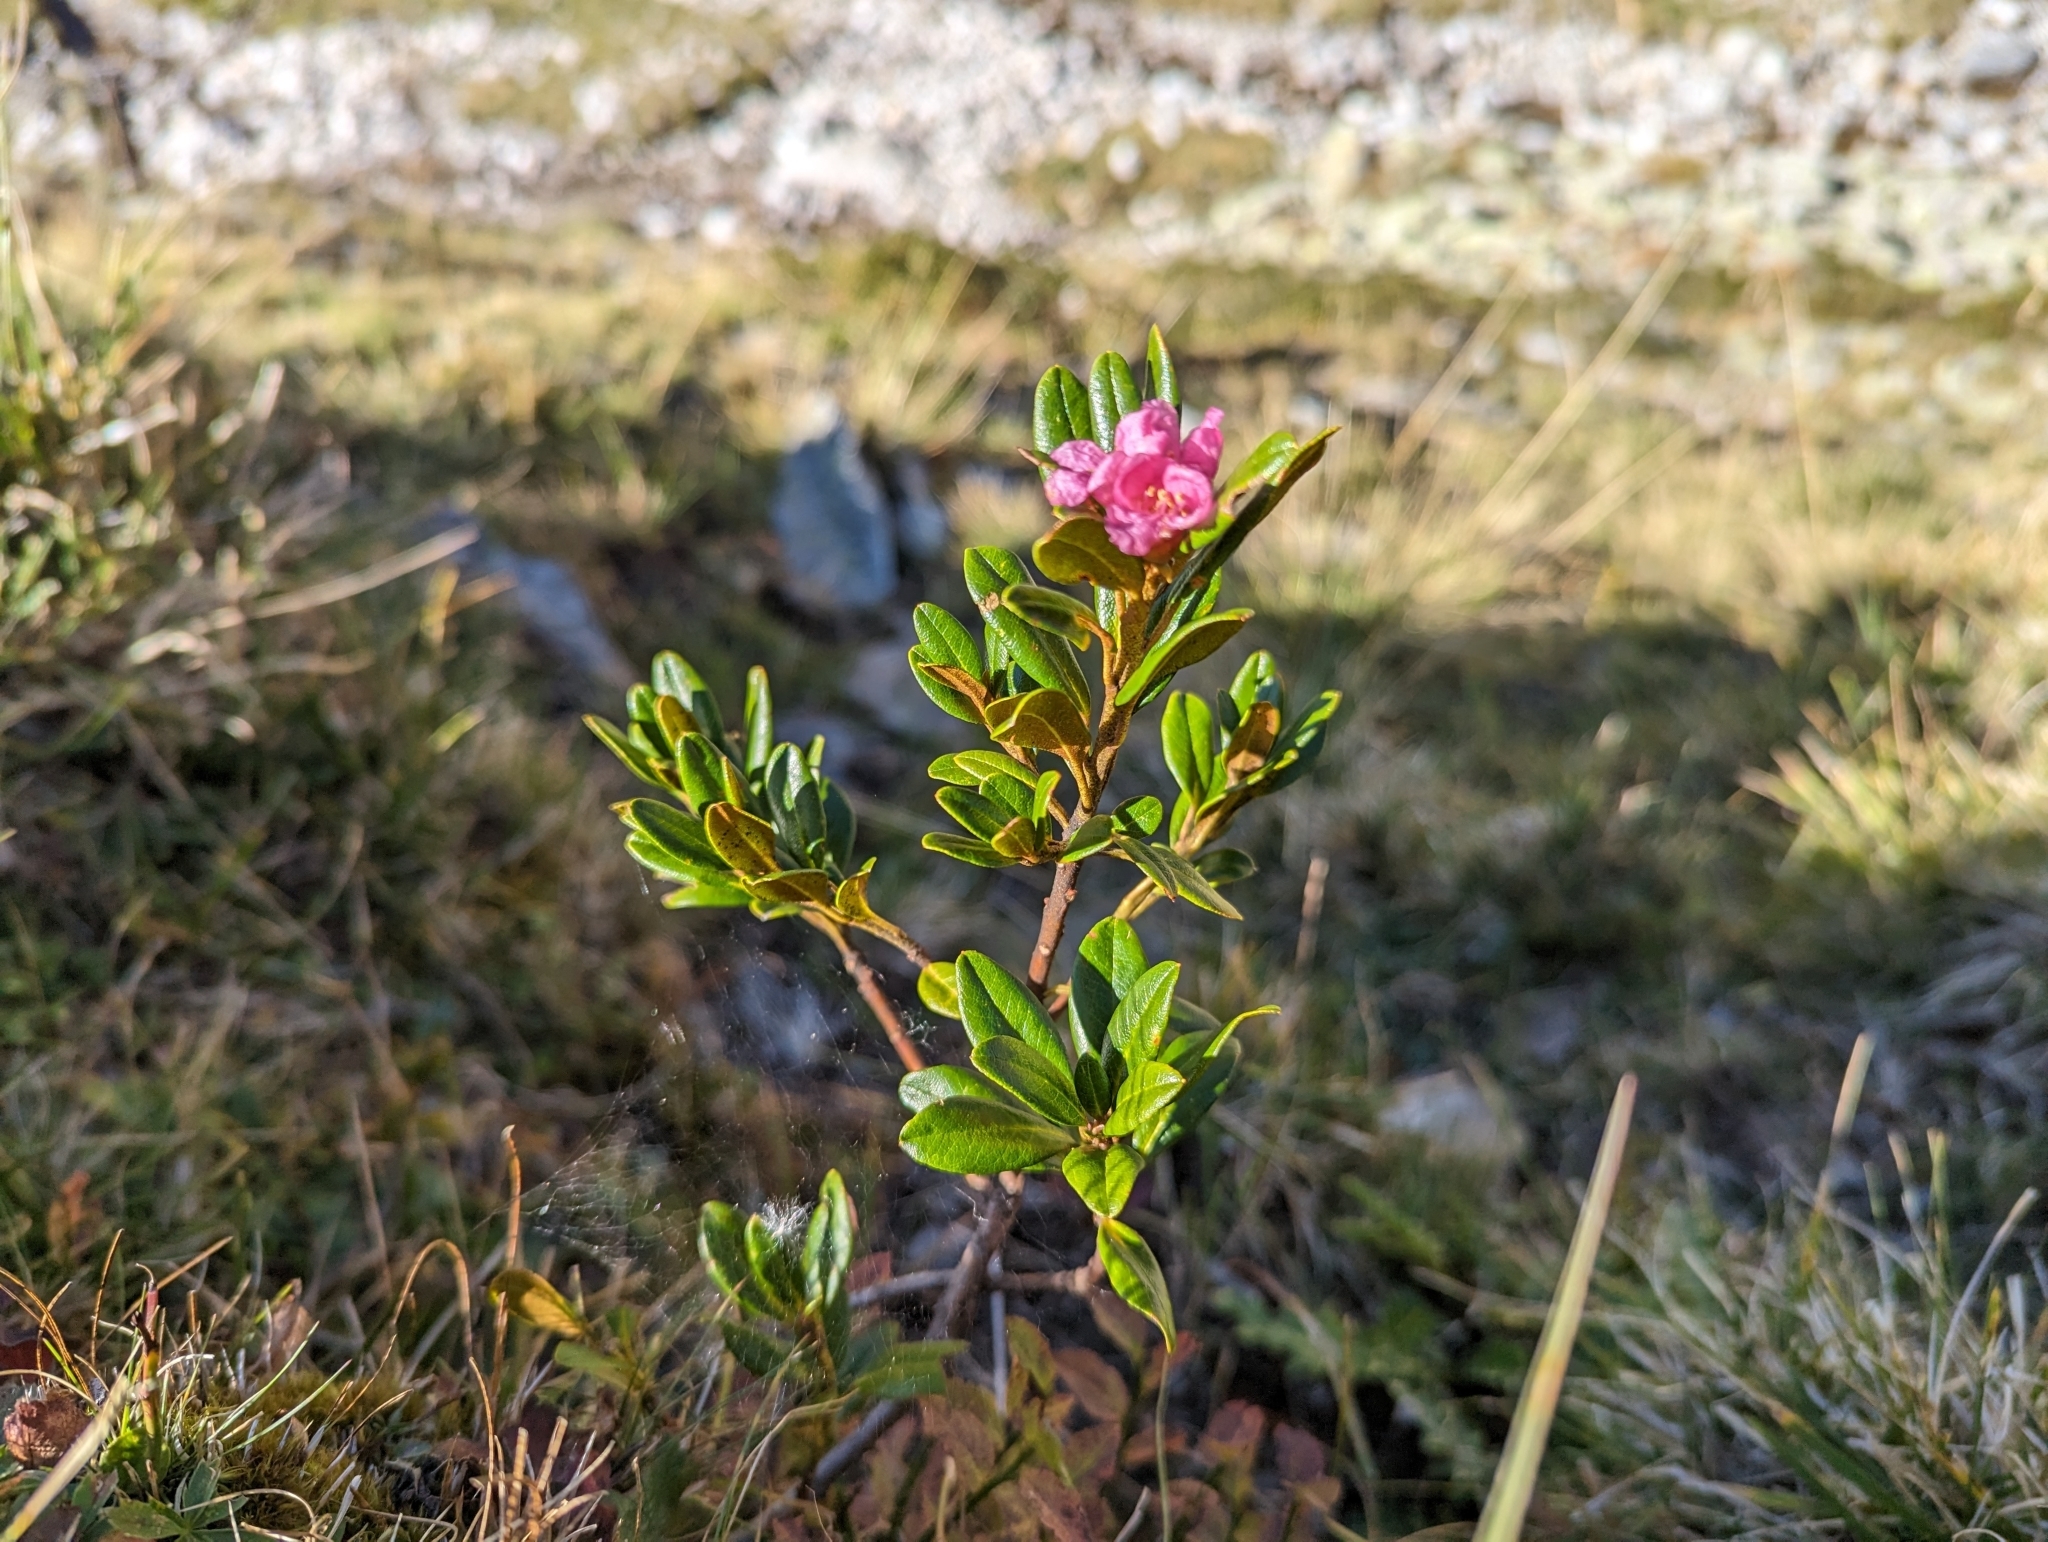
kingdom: Plantae
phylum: Tracheophyta
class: Magnoliopsida
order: Ericales
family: Ericaceae
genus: Rhododendron
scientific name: Rhododendron ferrugineum
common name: Alpenrose
